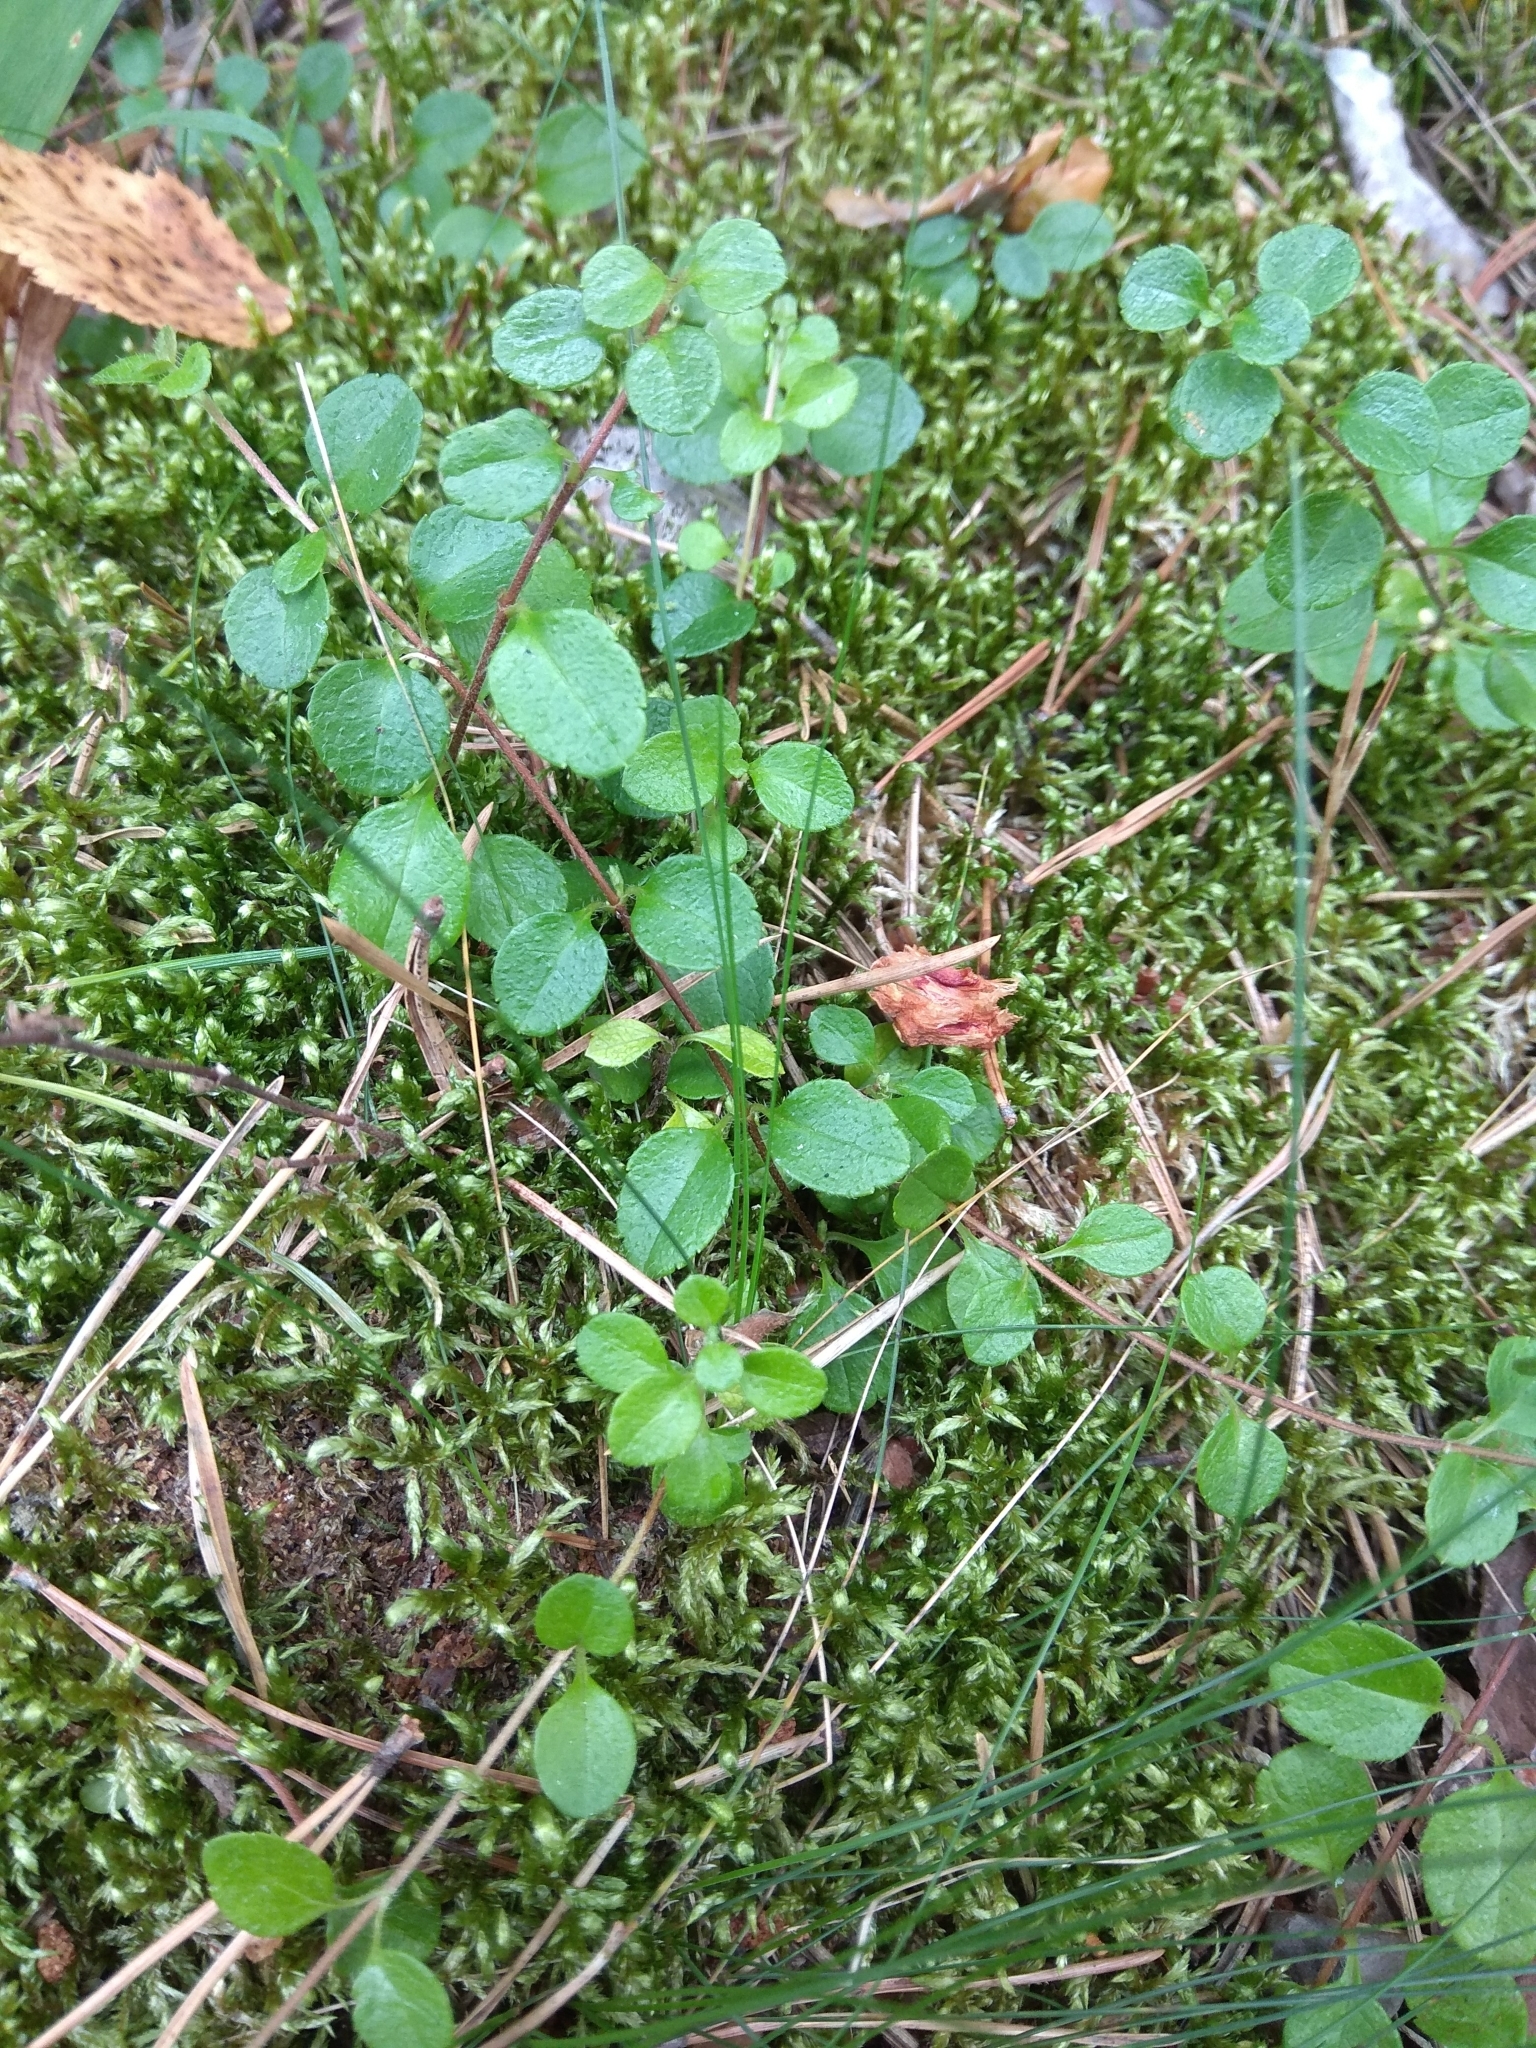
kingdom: Plantae
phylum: Tracheophyta
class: Magnoliopsida
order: Dipsacales
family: Caprifoliaceae
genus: Linnaea
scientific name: Linnaea borealis
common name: Twinflower
